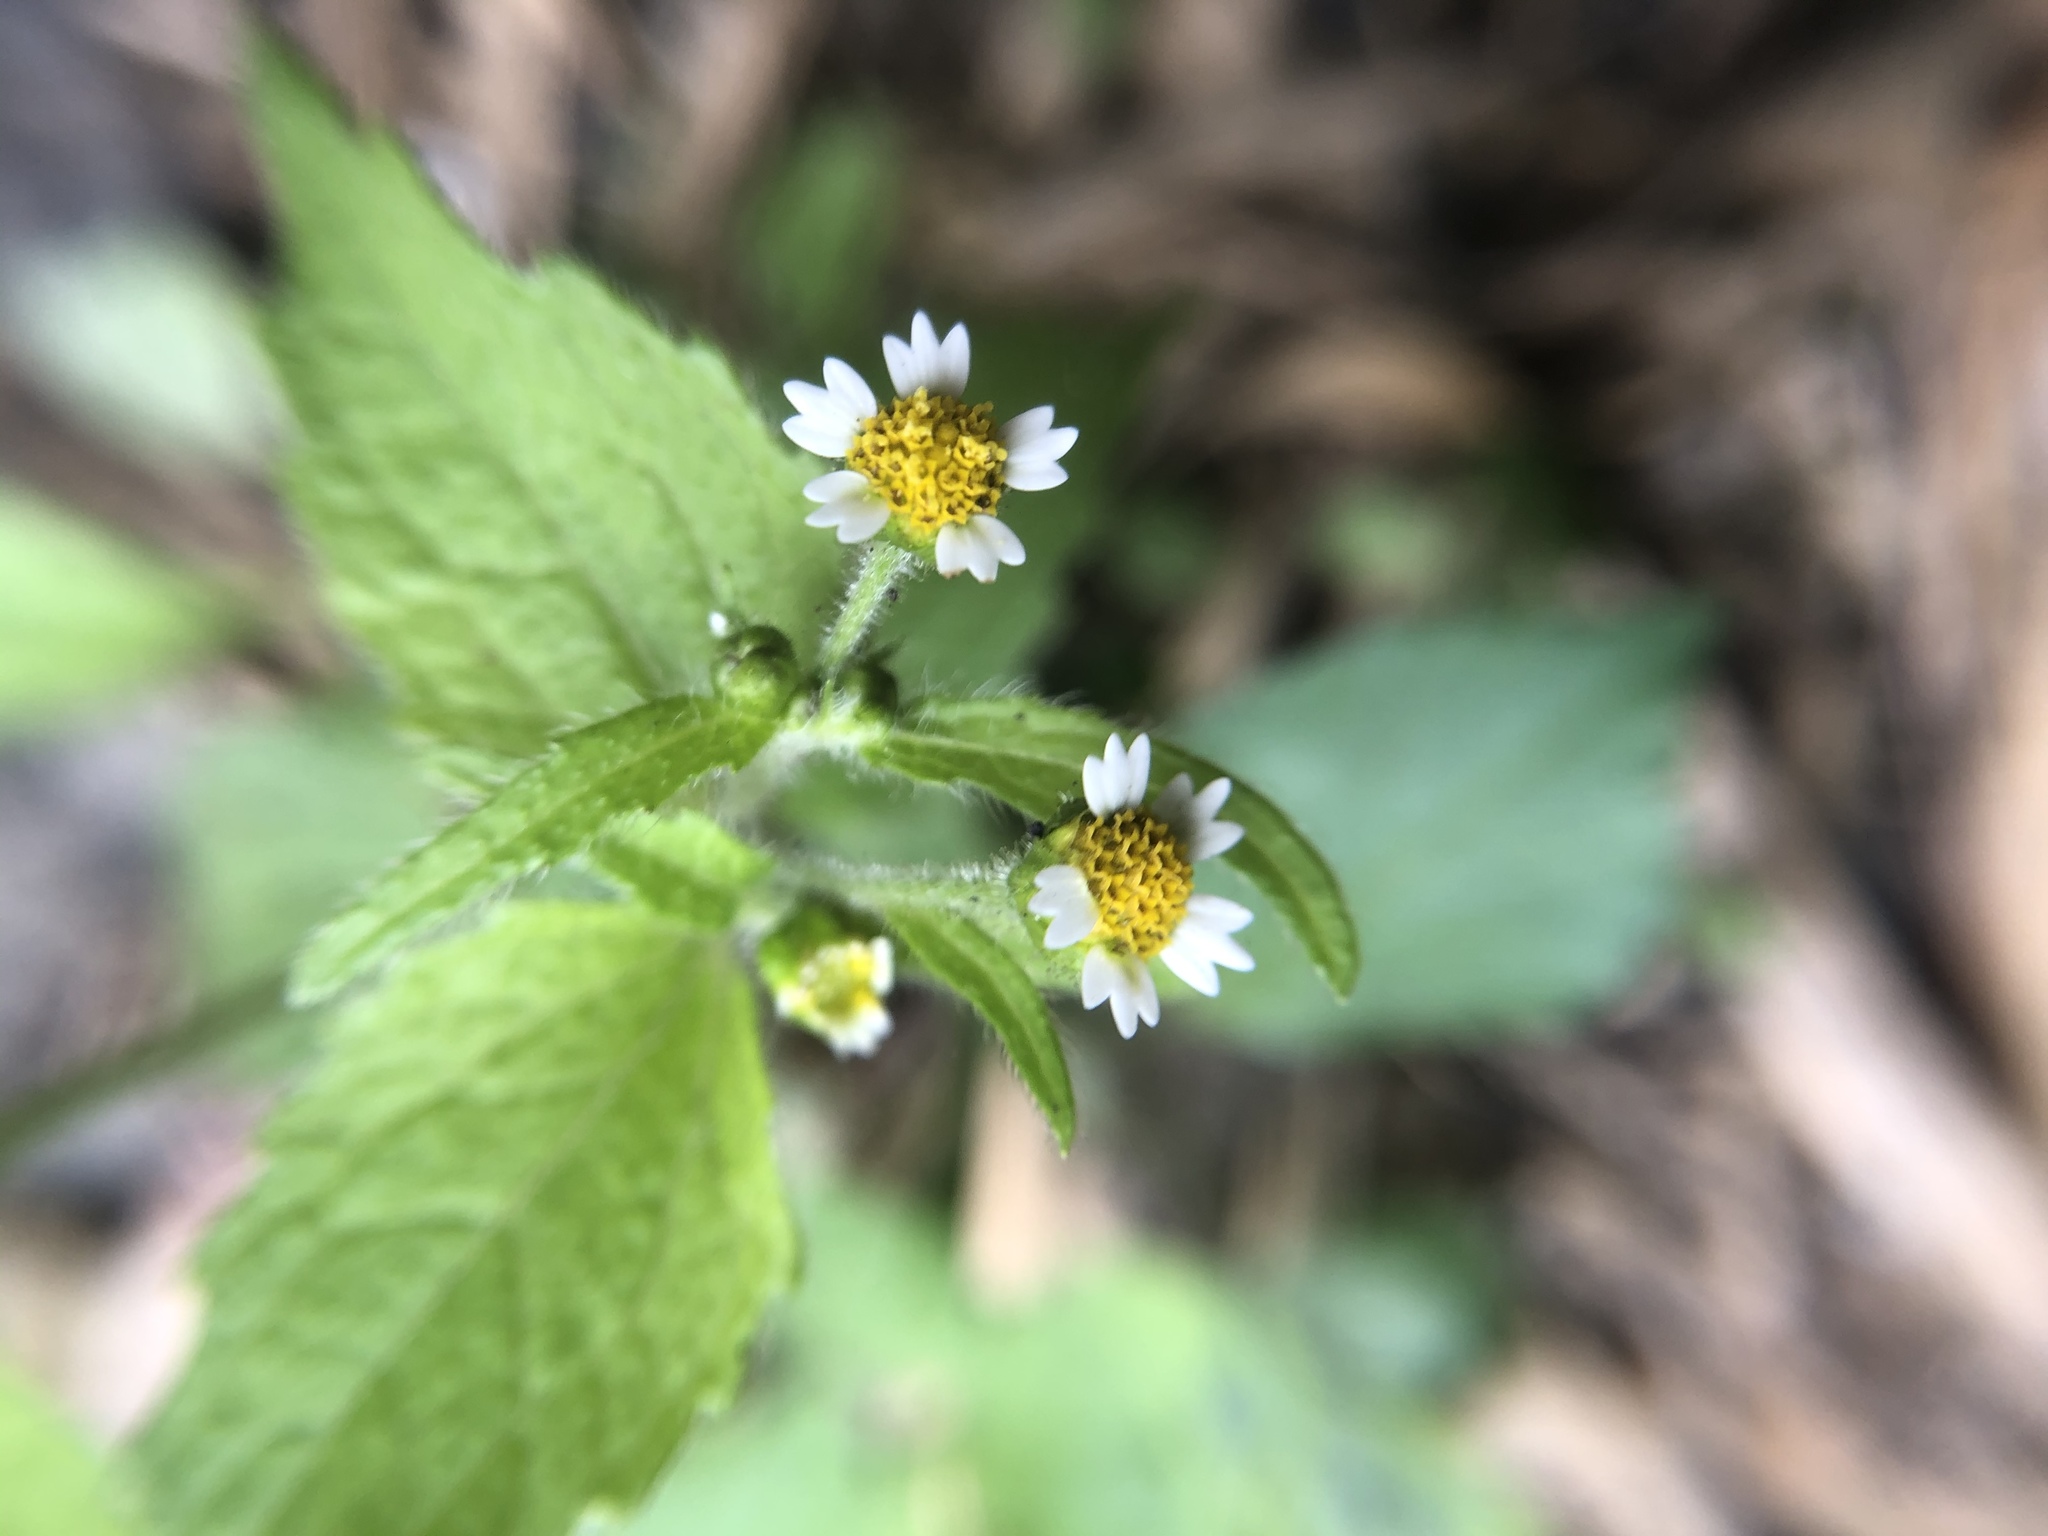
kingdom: Plantae
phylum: Tracheophyta
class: Magnoliopsida
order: Asterales
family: Asteraceae
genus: Galinsoga
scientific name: Galinsoga quadriradiata
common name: Shaggy soldier
